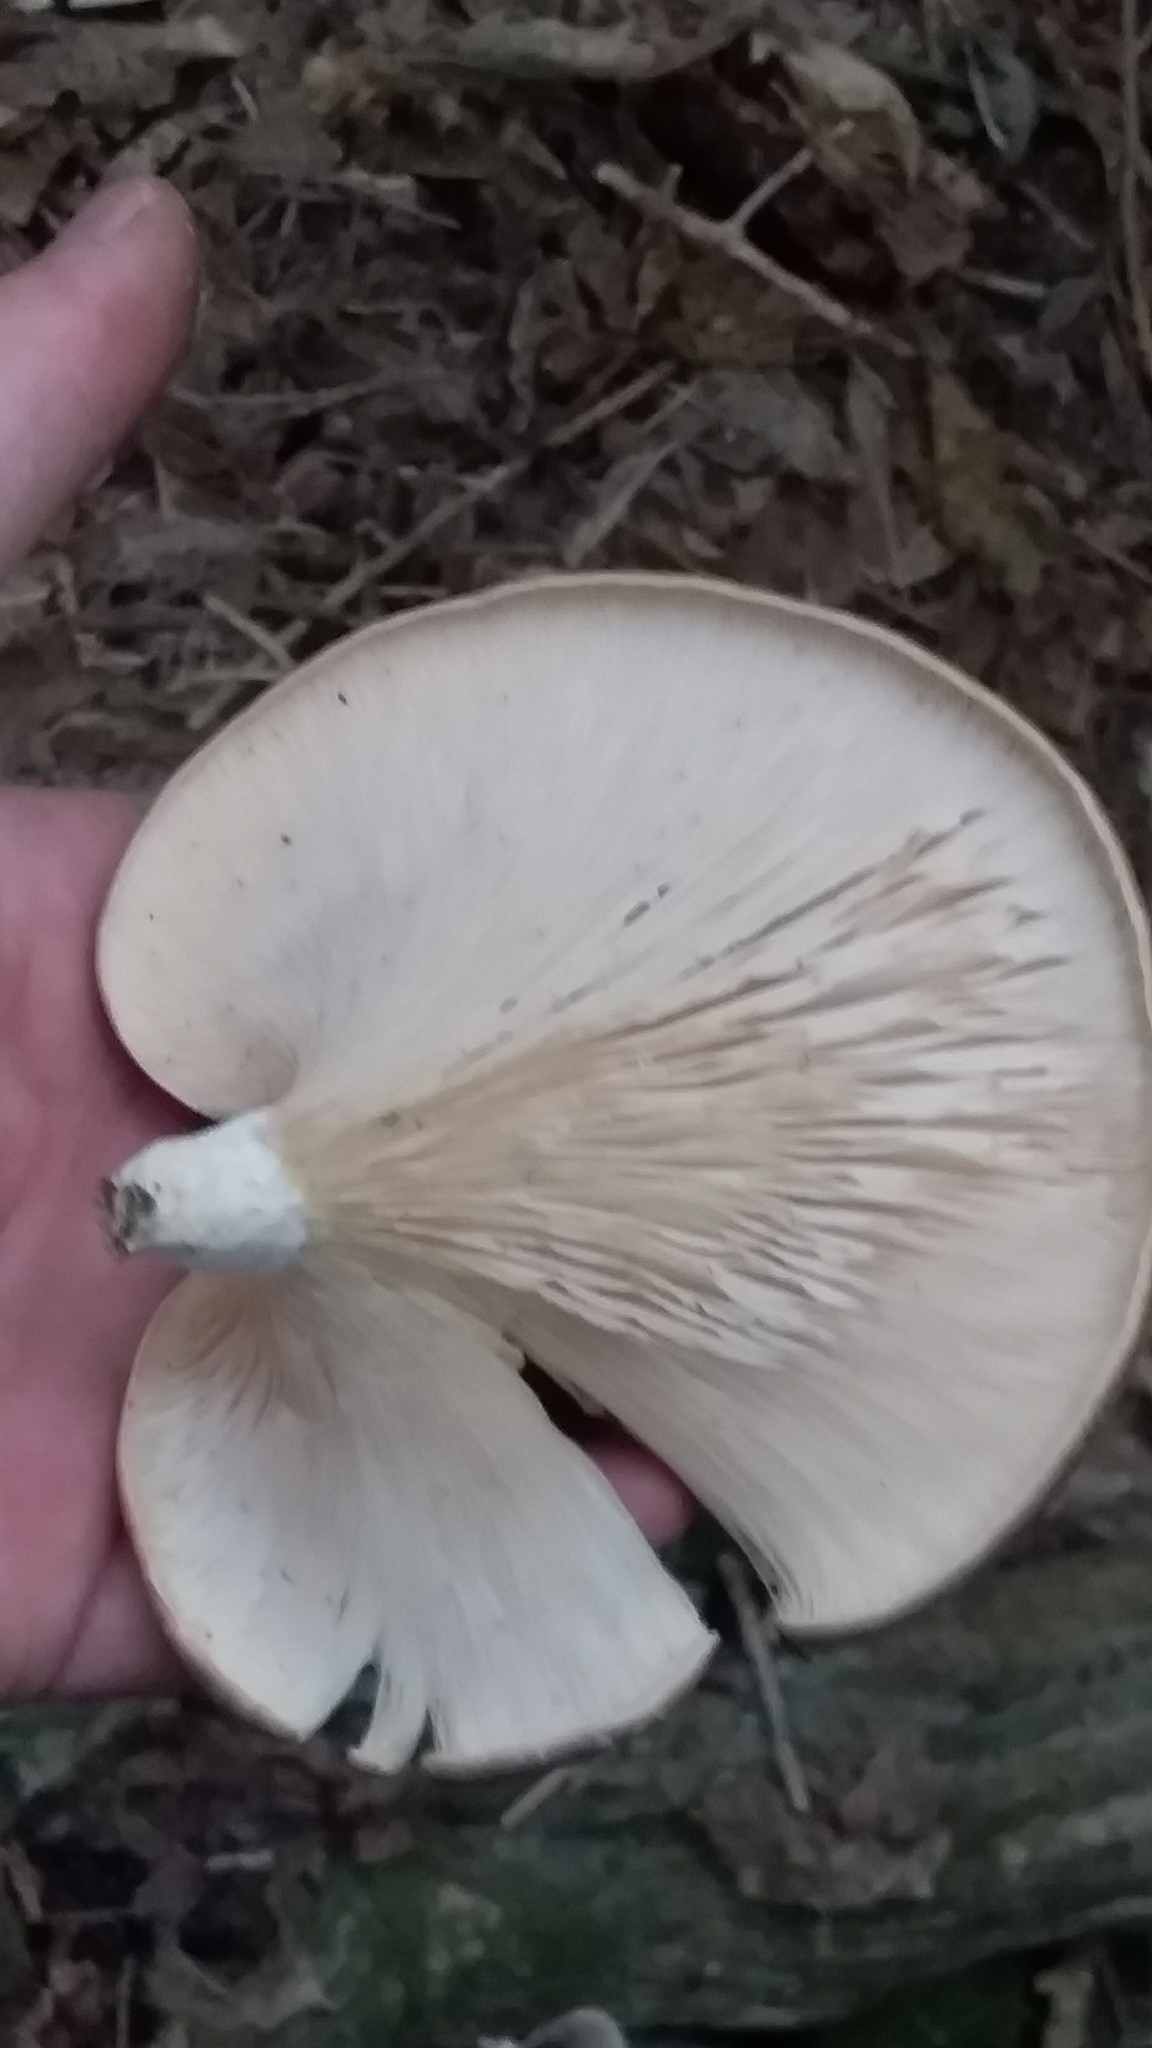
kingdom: Fungi
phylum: Basidiomycota
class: Agaricomycetes
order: Agaricales
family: Pleurotaceae
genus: Pleurotus
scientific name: Pleurotus australis
